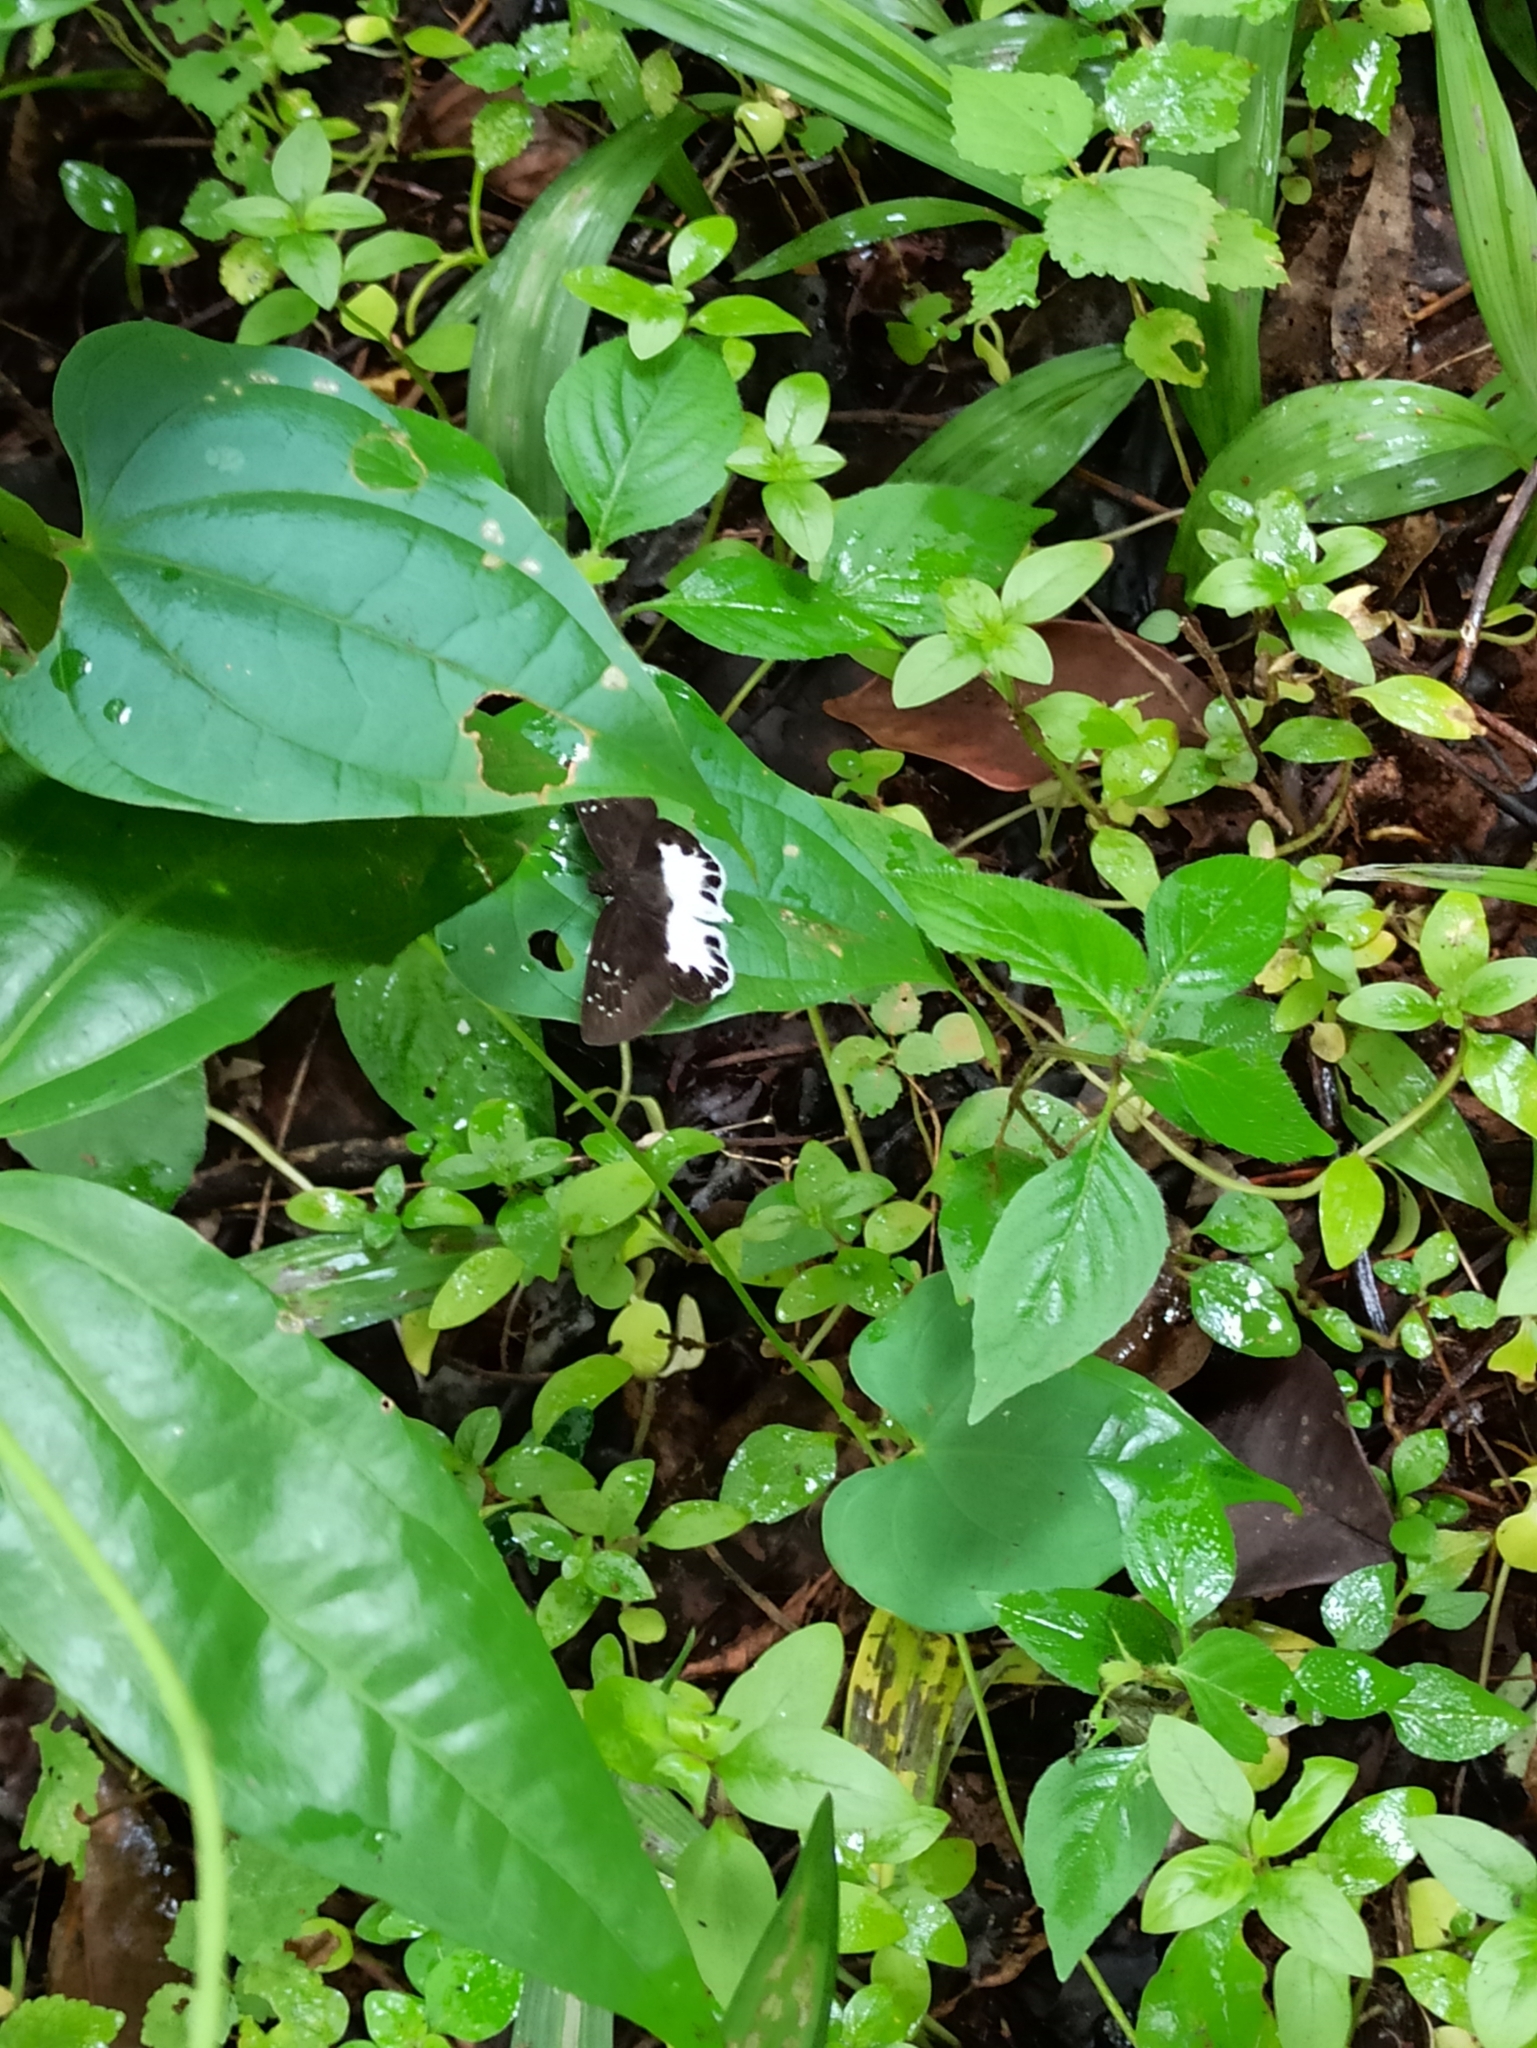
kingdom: Animalia
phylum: Arthropoda
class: Insecta
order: Lepidoptera
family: Hesperiidae
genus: Tagiades
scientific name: Tagiades litigiosa
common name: Water snow flat
